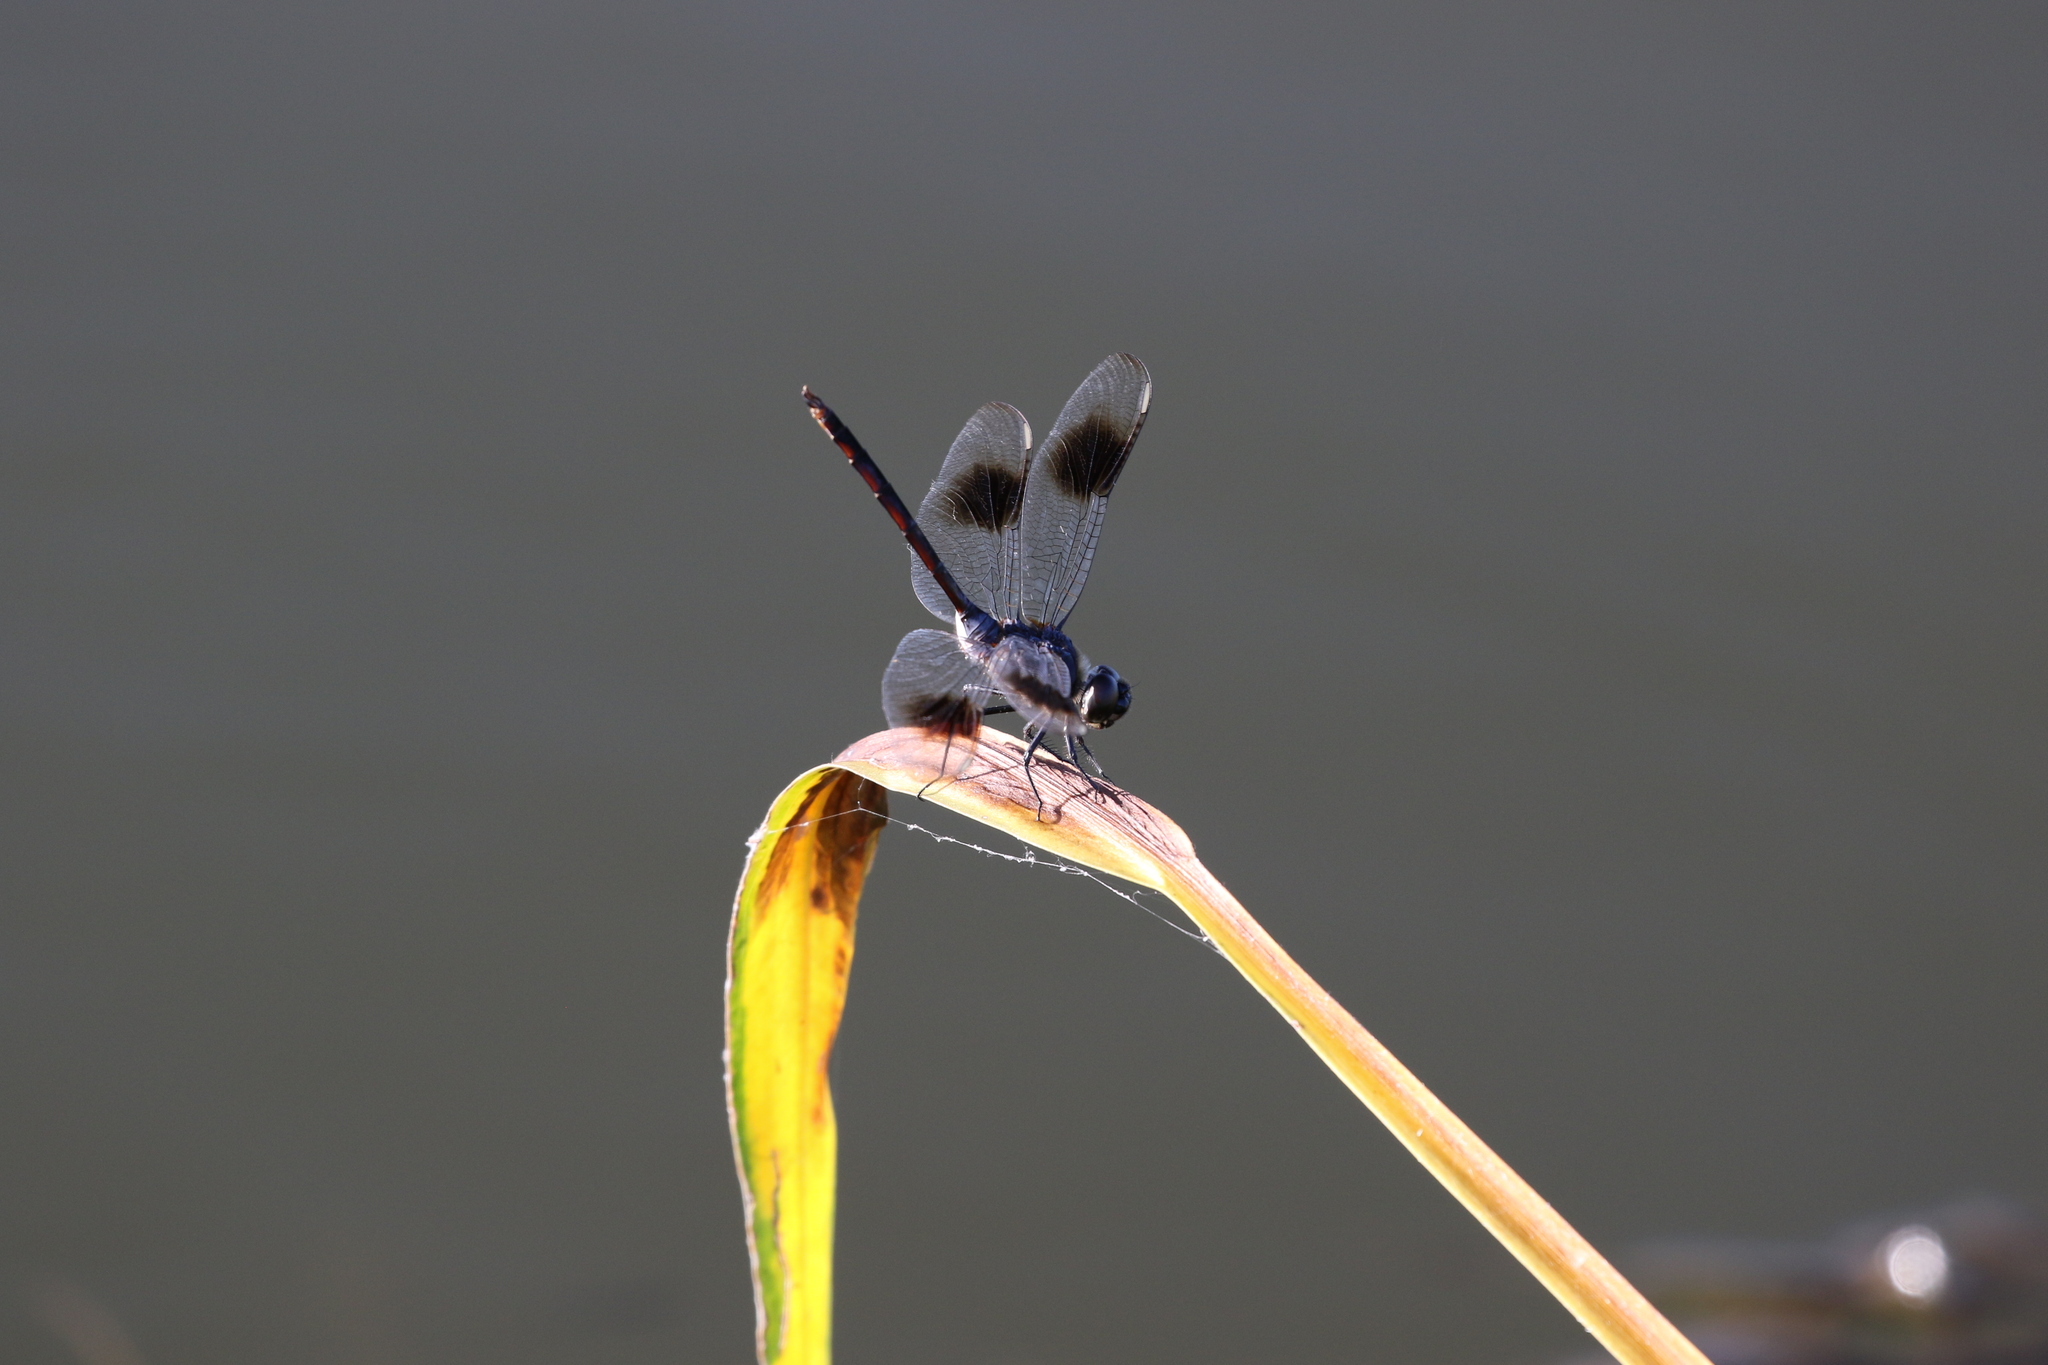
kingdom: Animalia
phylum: Arthropoda
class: Insecta
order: Odonata
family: Libellulidae
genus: Brachymesia
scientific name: Brachymesia gravida
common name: Four-spotted pennant
